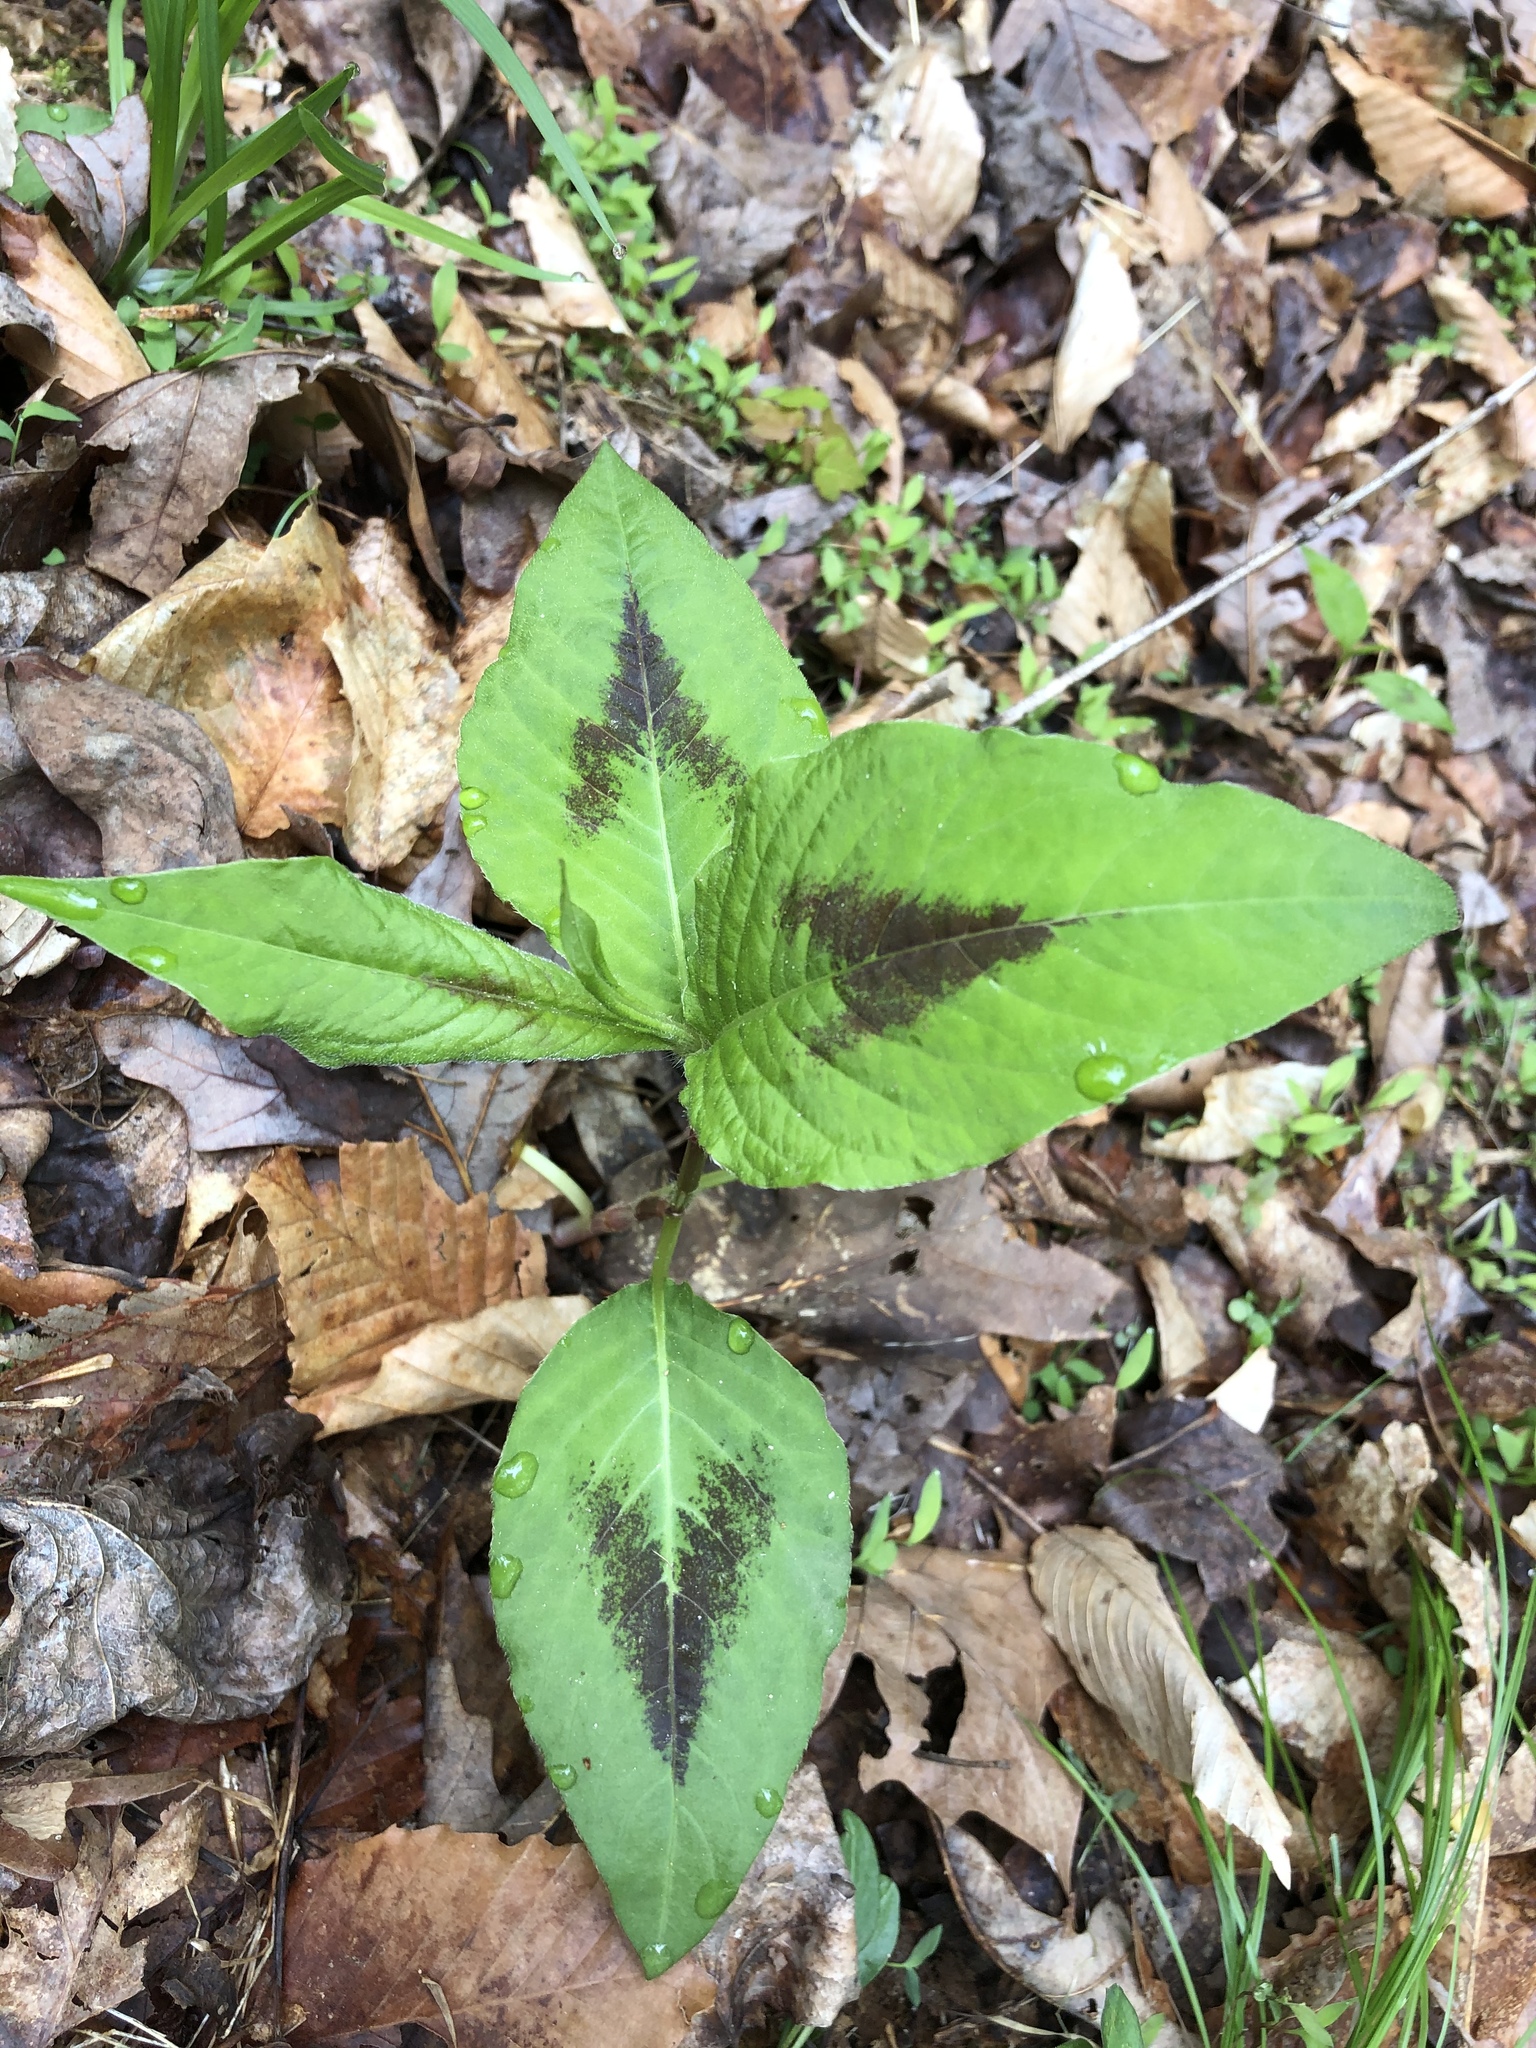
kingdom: Plantae
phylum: Tracheophyta
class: Magnoliopsida
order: Caryophyllales
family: Polygonaceae
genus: Persicaria
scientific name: Persicaria virginiana
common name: Jumpseed
